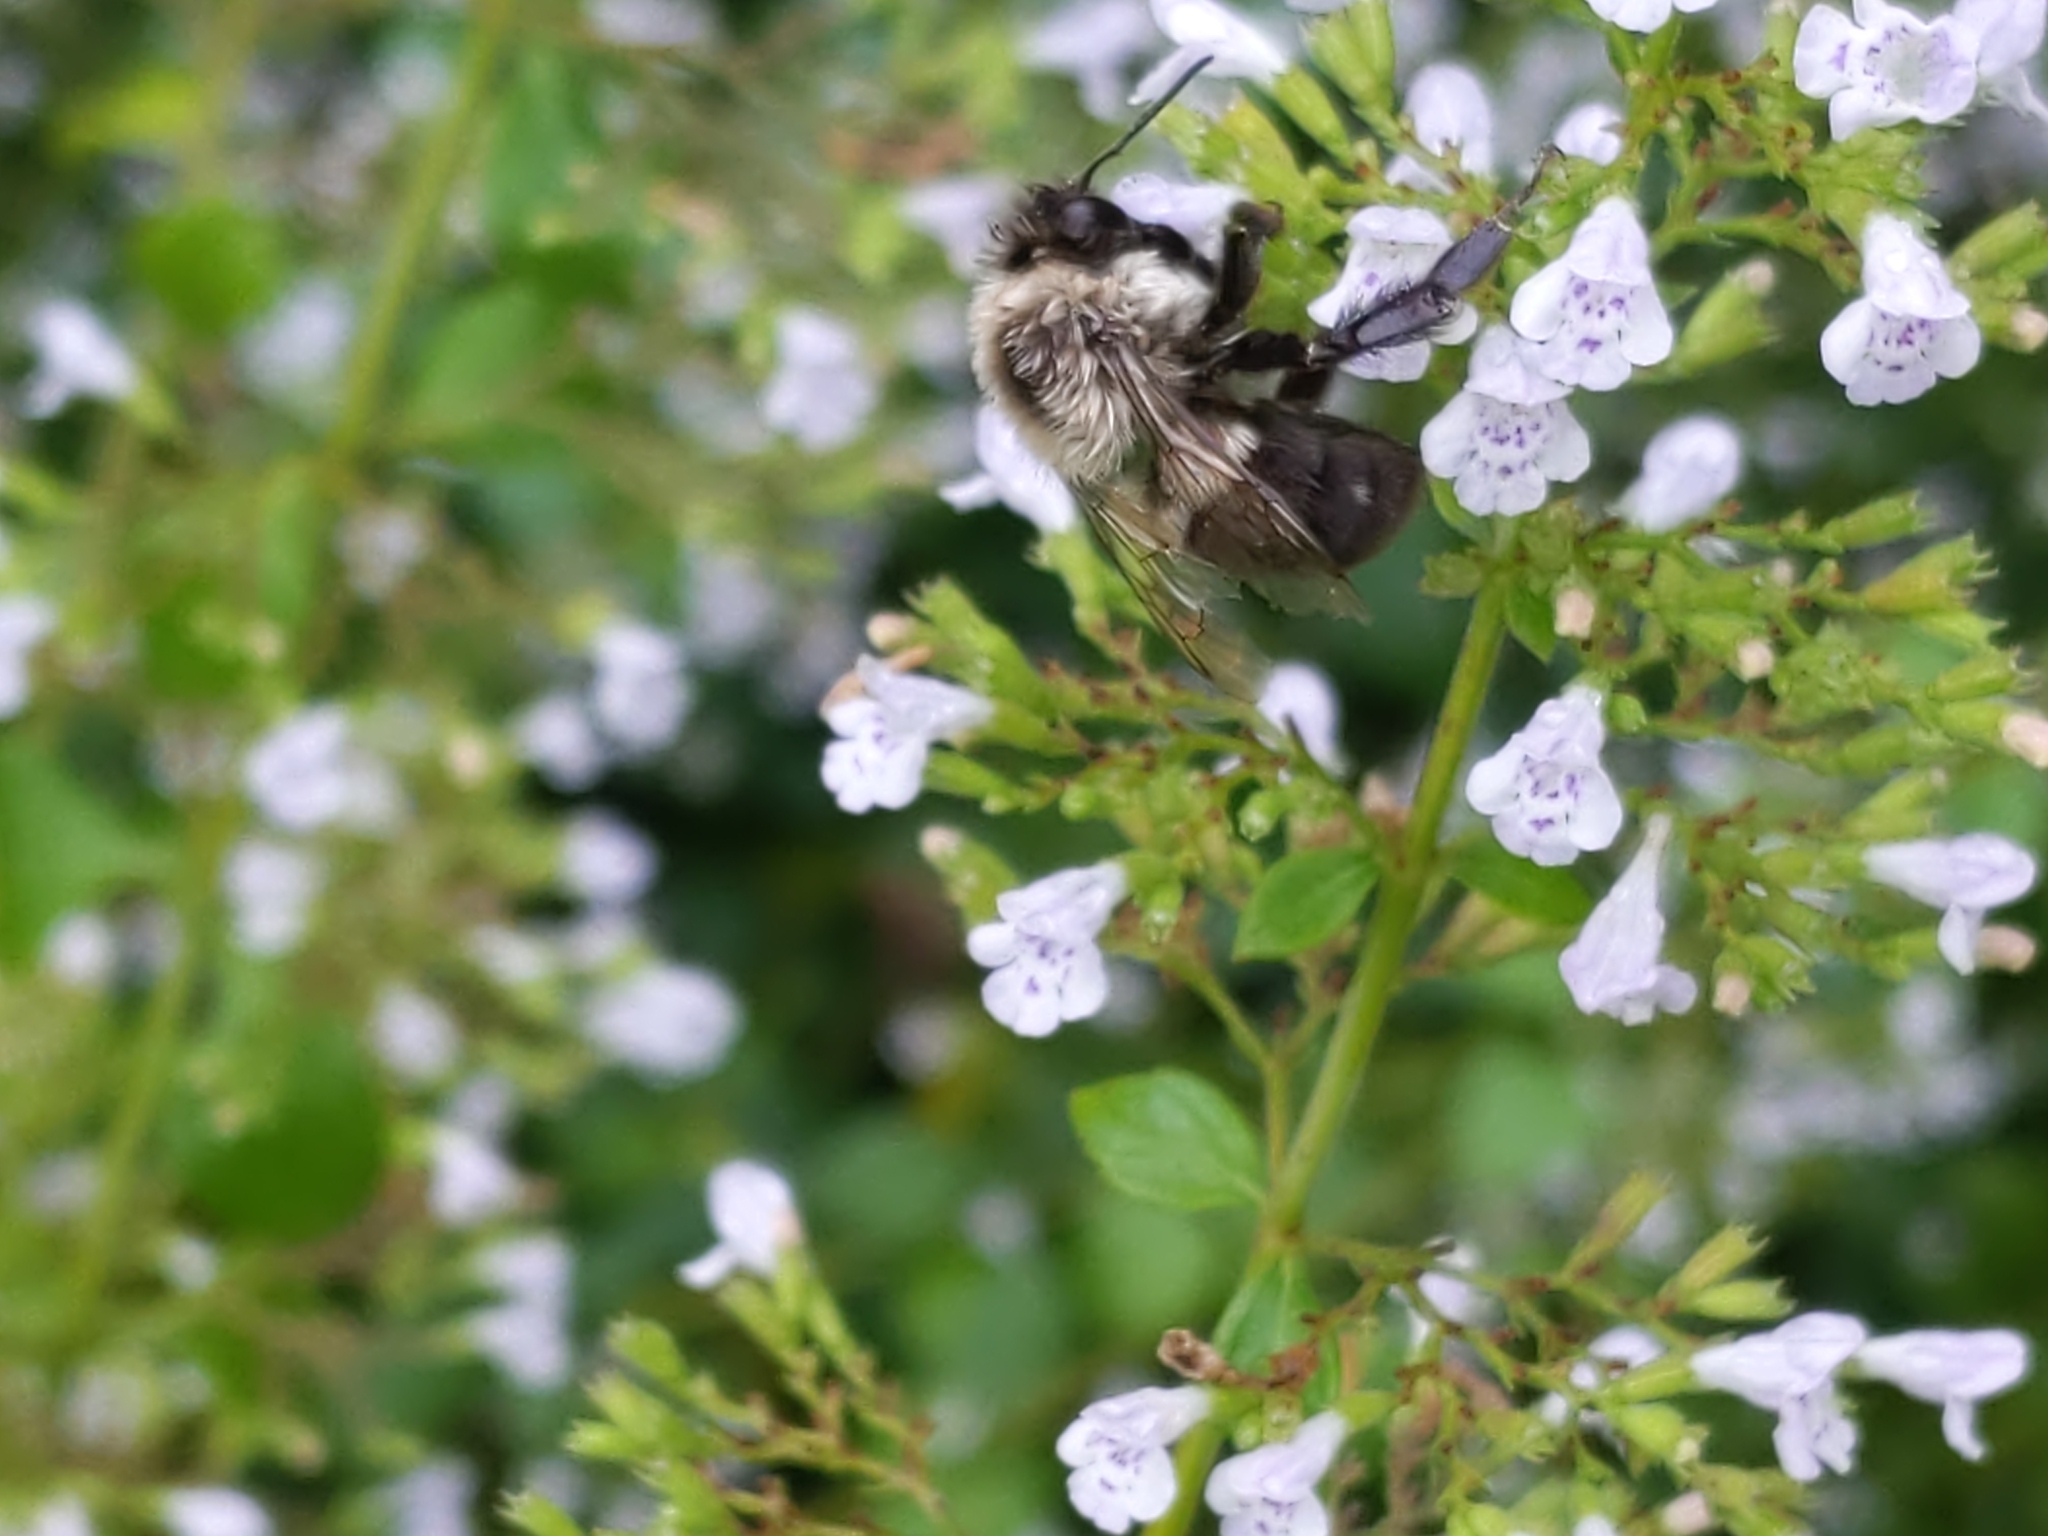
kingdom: Animalia
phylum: Arthropoda
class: Insecta
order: Hymenoptera
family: Apidae
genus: Bombus
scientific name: Bombus impatiens
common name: Common eastern bumble bee
